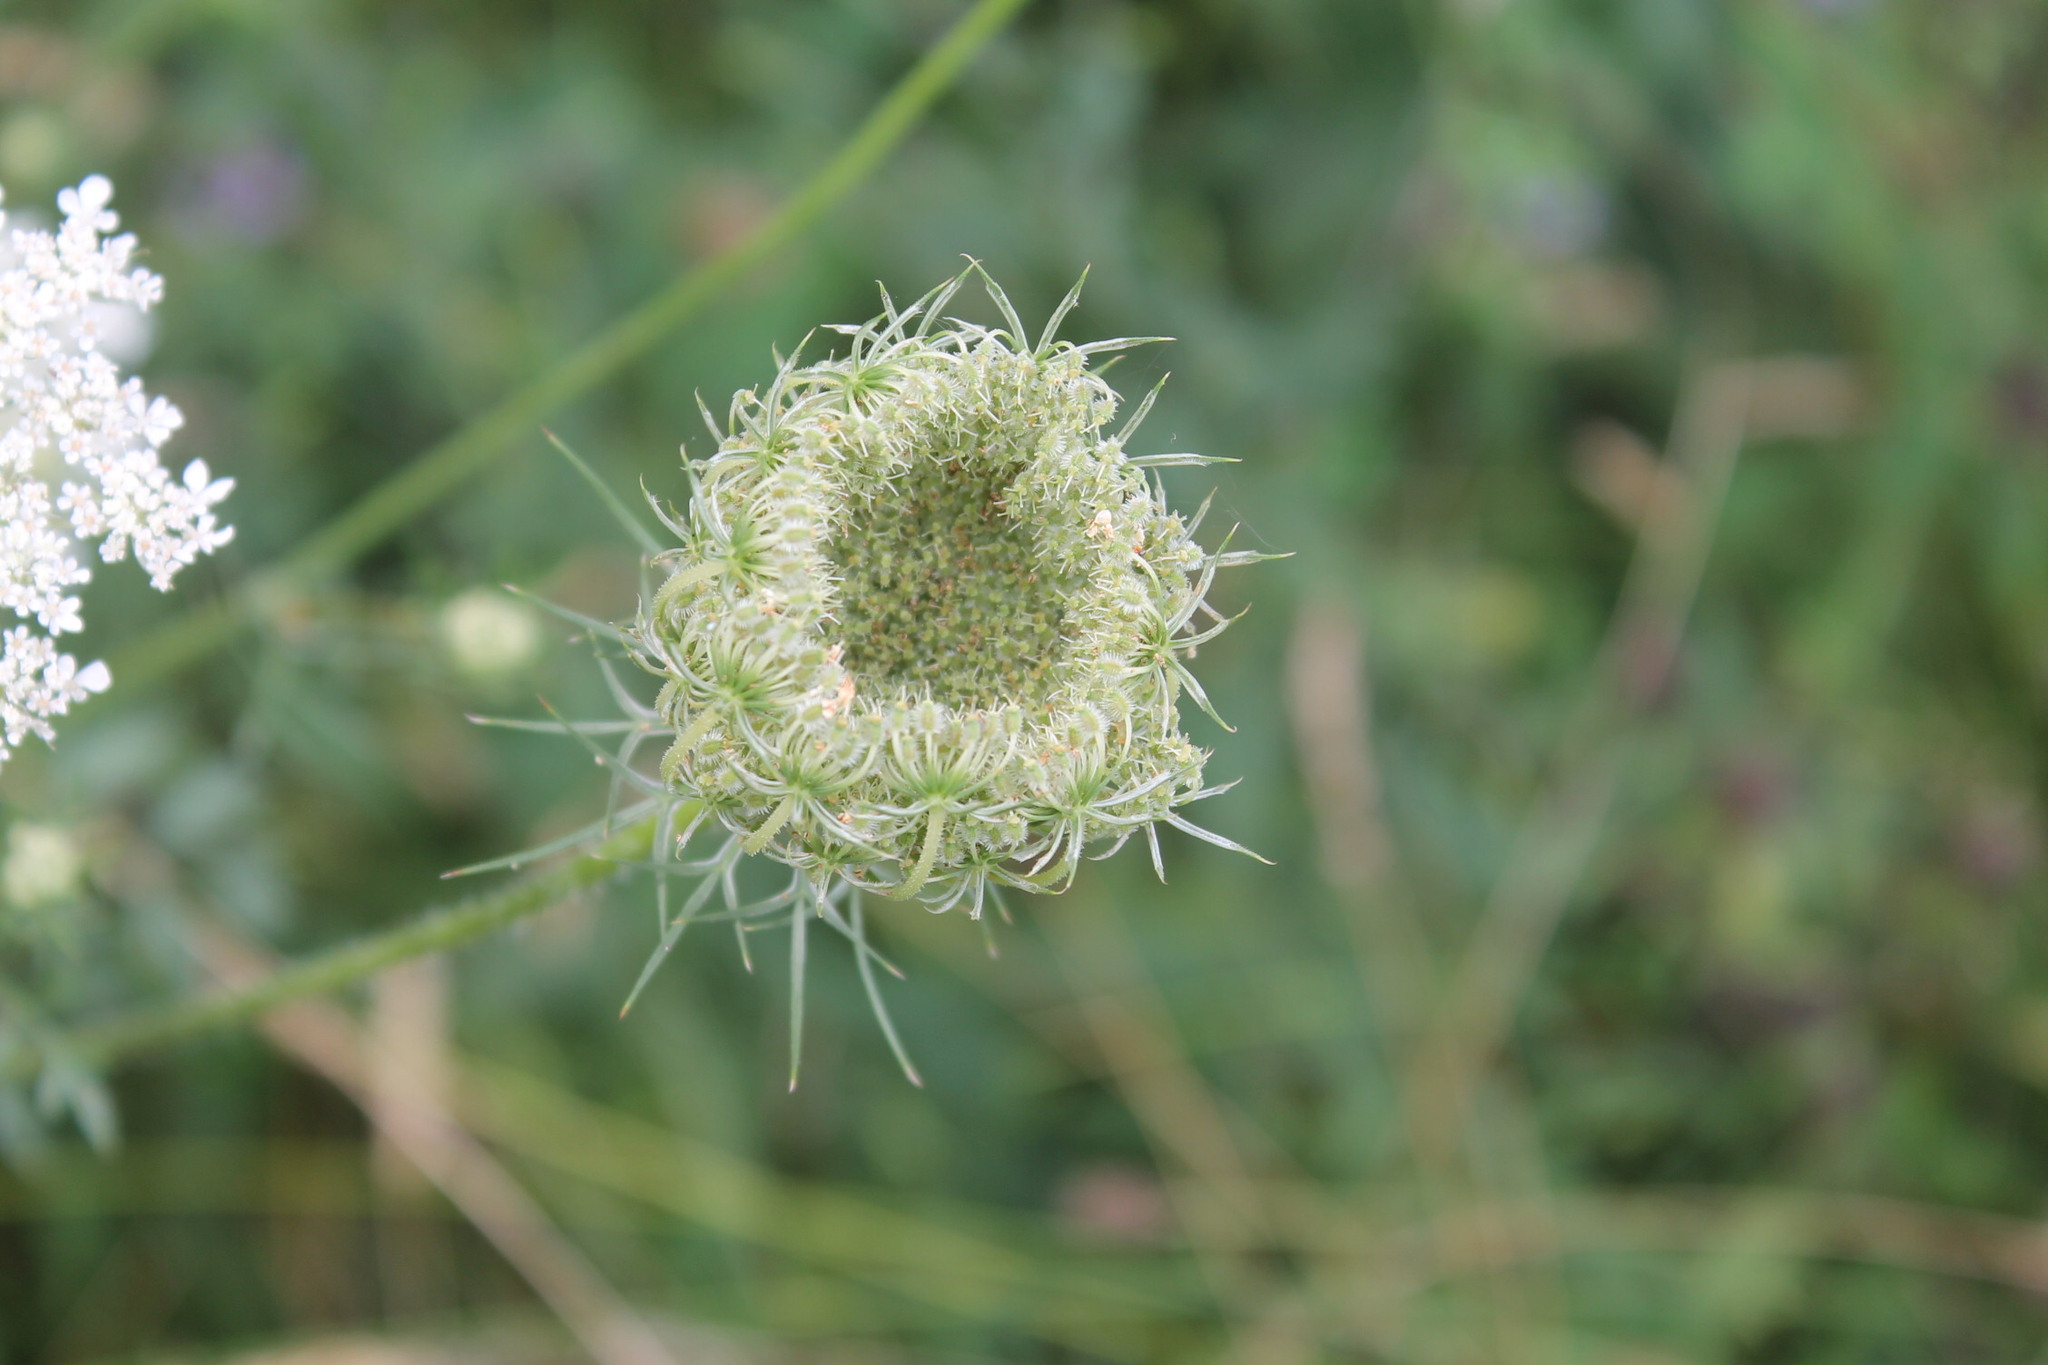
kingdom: Plantae
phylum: Tracheophyta
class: Magnoliopsida
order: Apiales
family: Apiaceae
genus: Daucus
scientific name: Daucus carota
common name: Wild carrot
